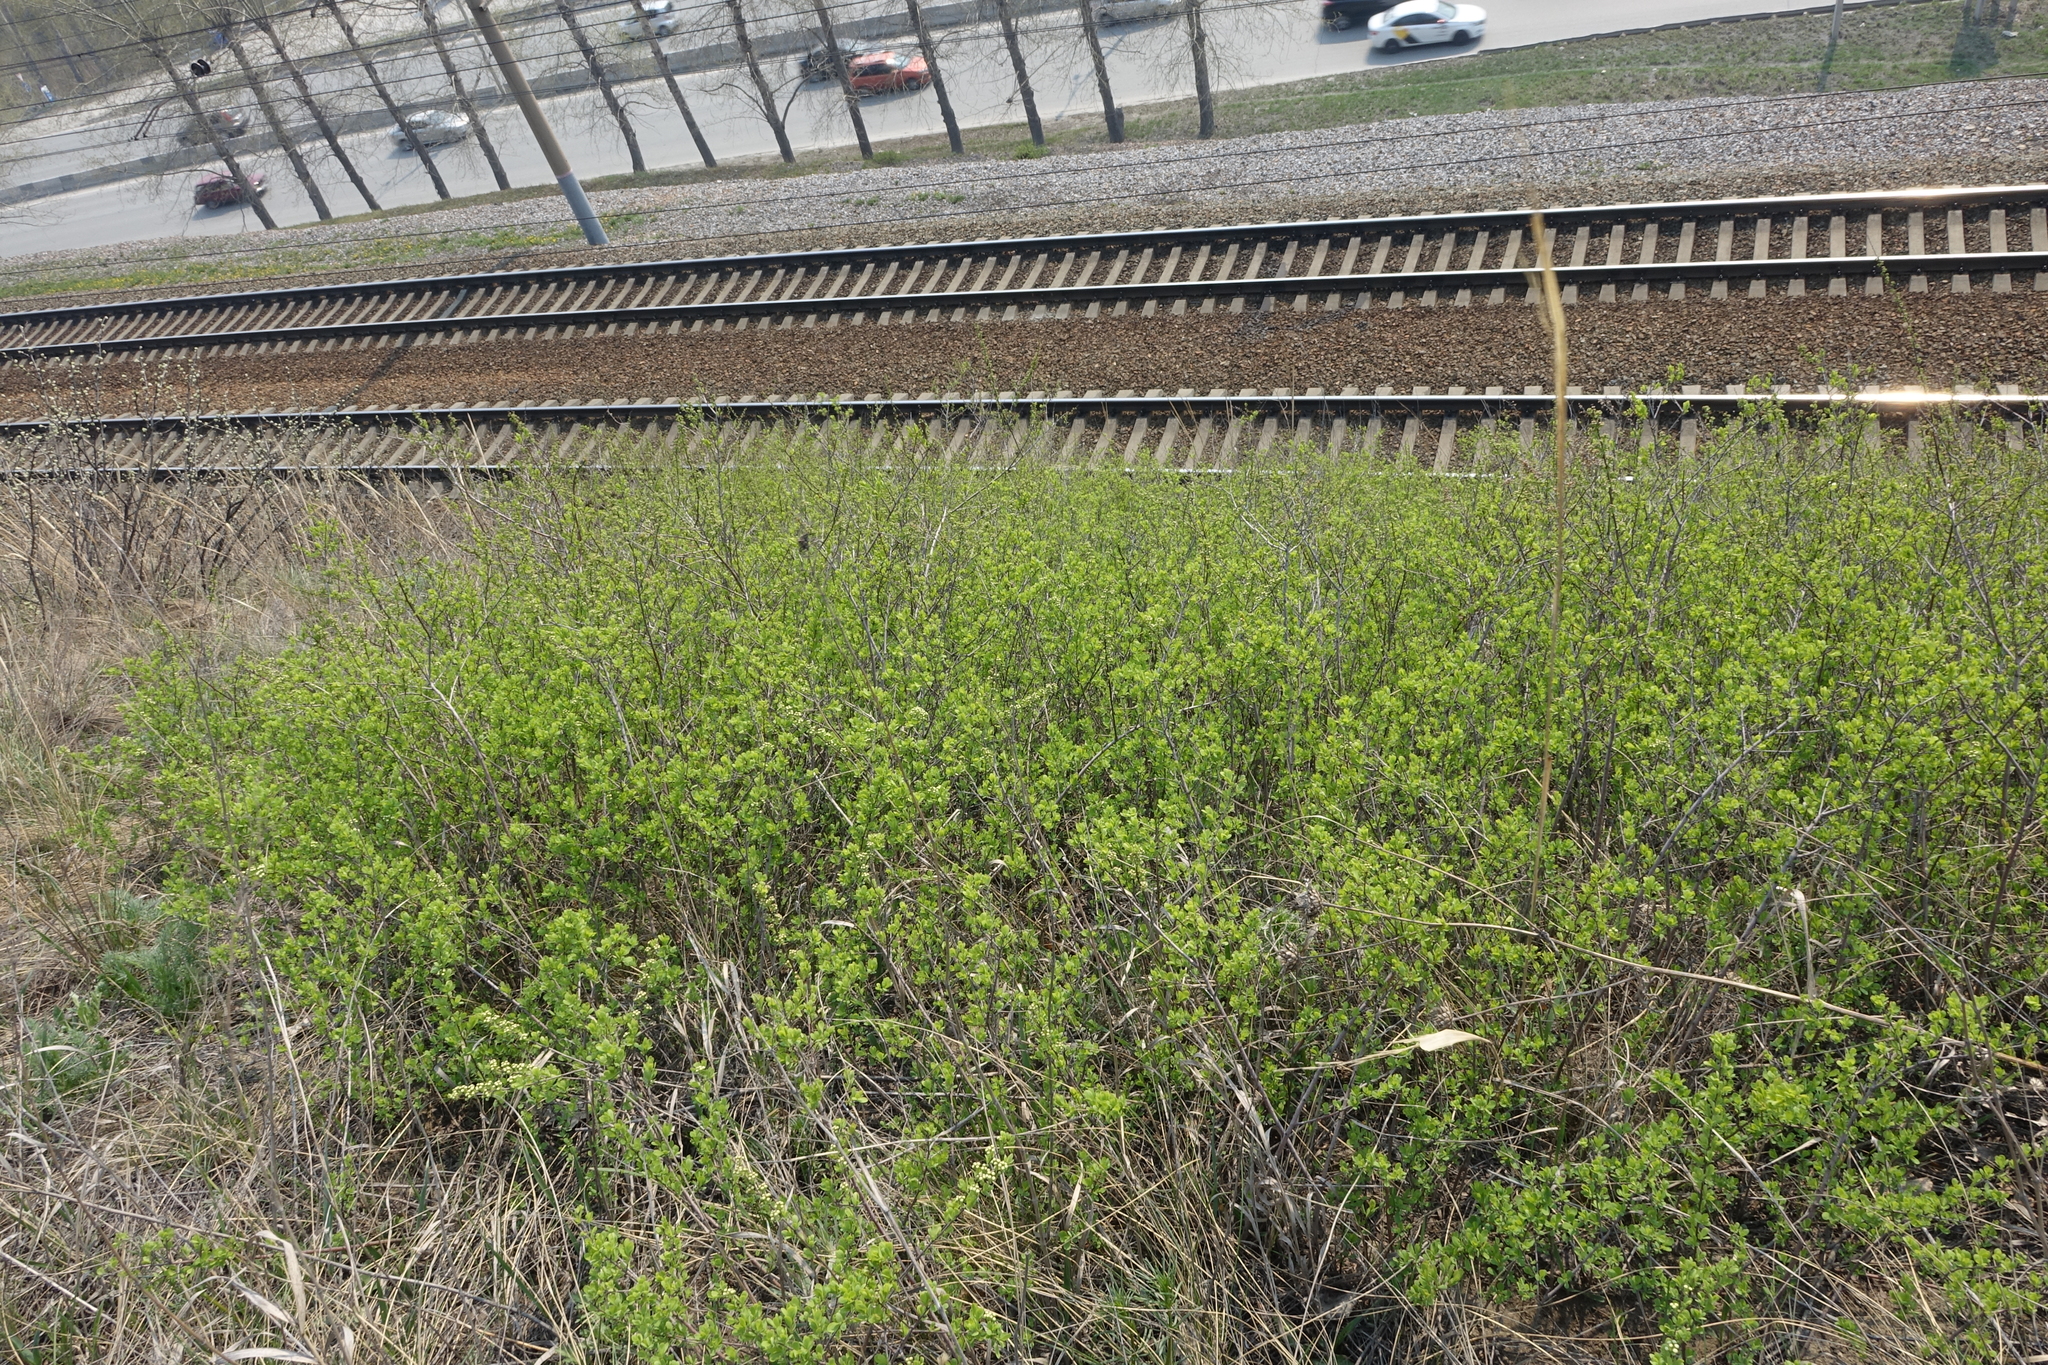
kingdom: Plantae
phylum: Tracheophyta
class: Magnoliopsida
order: Rosales
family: Rosaceae
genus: Spiraea
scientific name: Spiraea hypericifolia
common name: Iberian spirea
